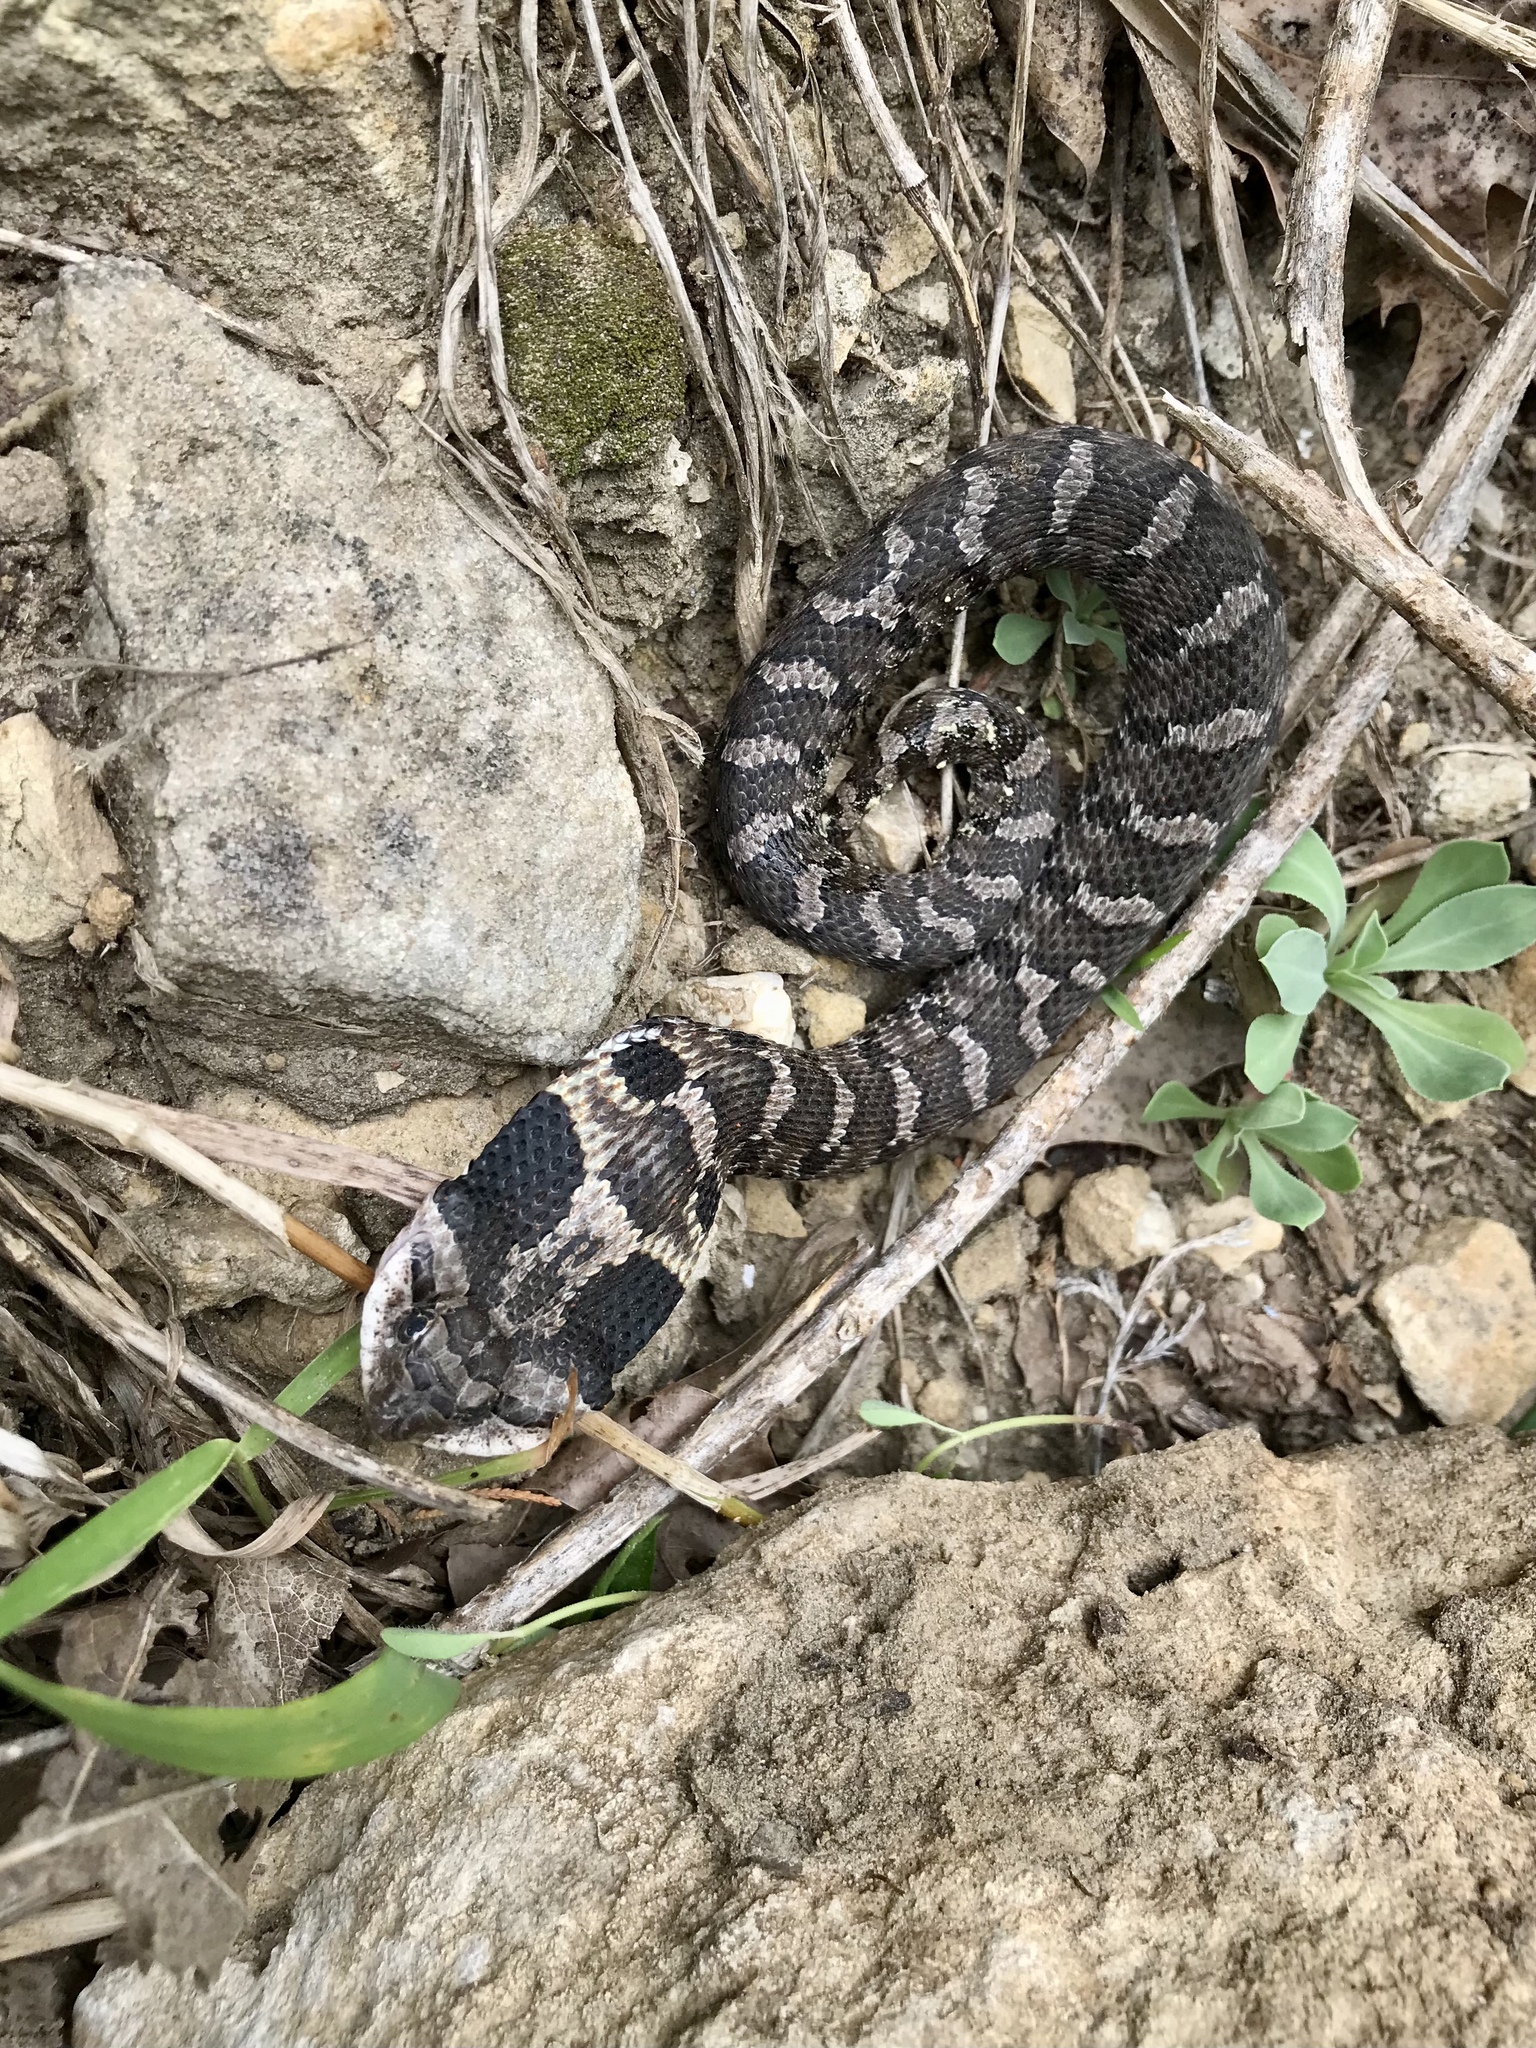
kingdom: Animalia
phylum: Chordata
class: Squamata
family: Colubridae
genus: Heterodon
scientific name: Heterodon platirhinos
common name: Eastern hognose snake
